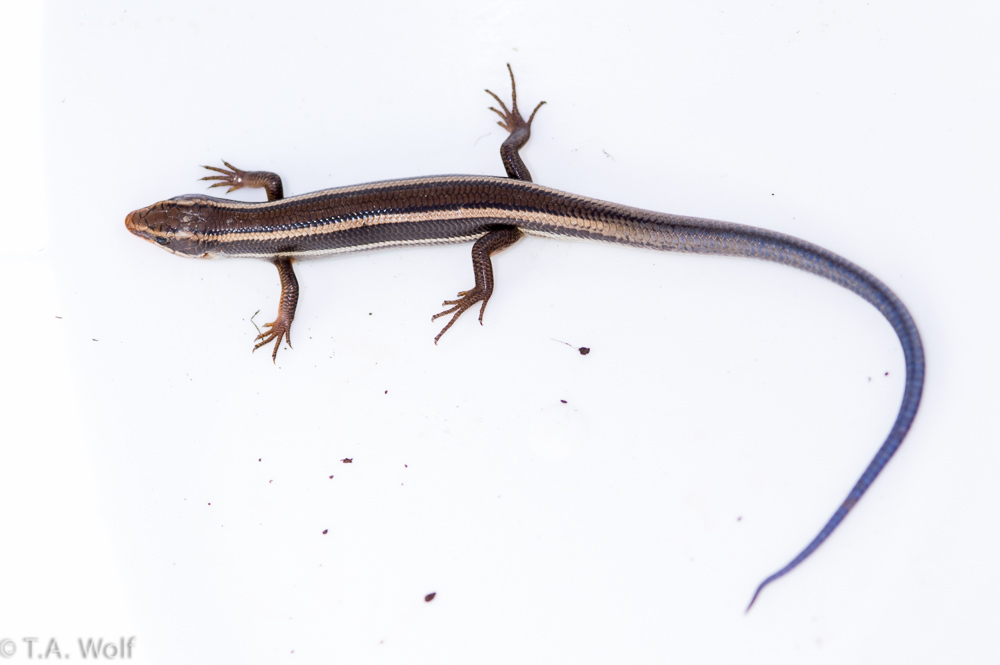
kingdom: Animalia
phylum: Chordata
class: Squamata
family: Scincidae
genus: Plestiodon
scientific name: Plestiodon skiltonianus
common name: Coronado island skink [interparietalis]
